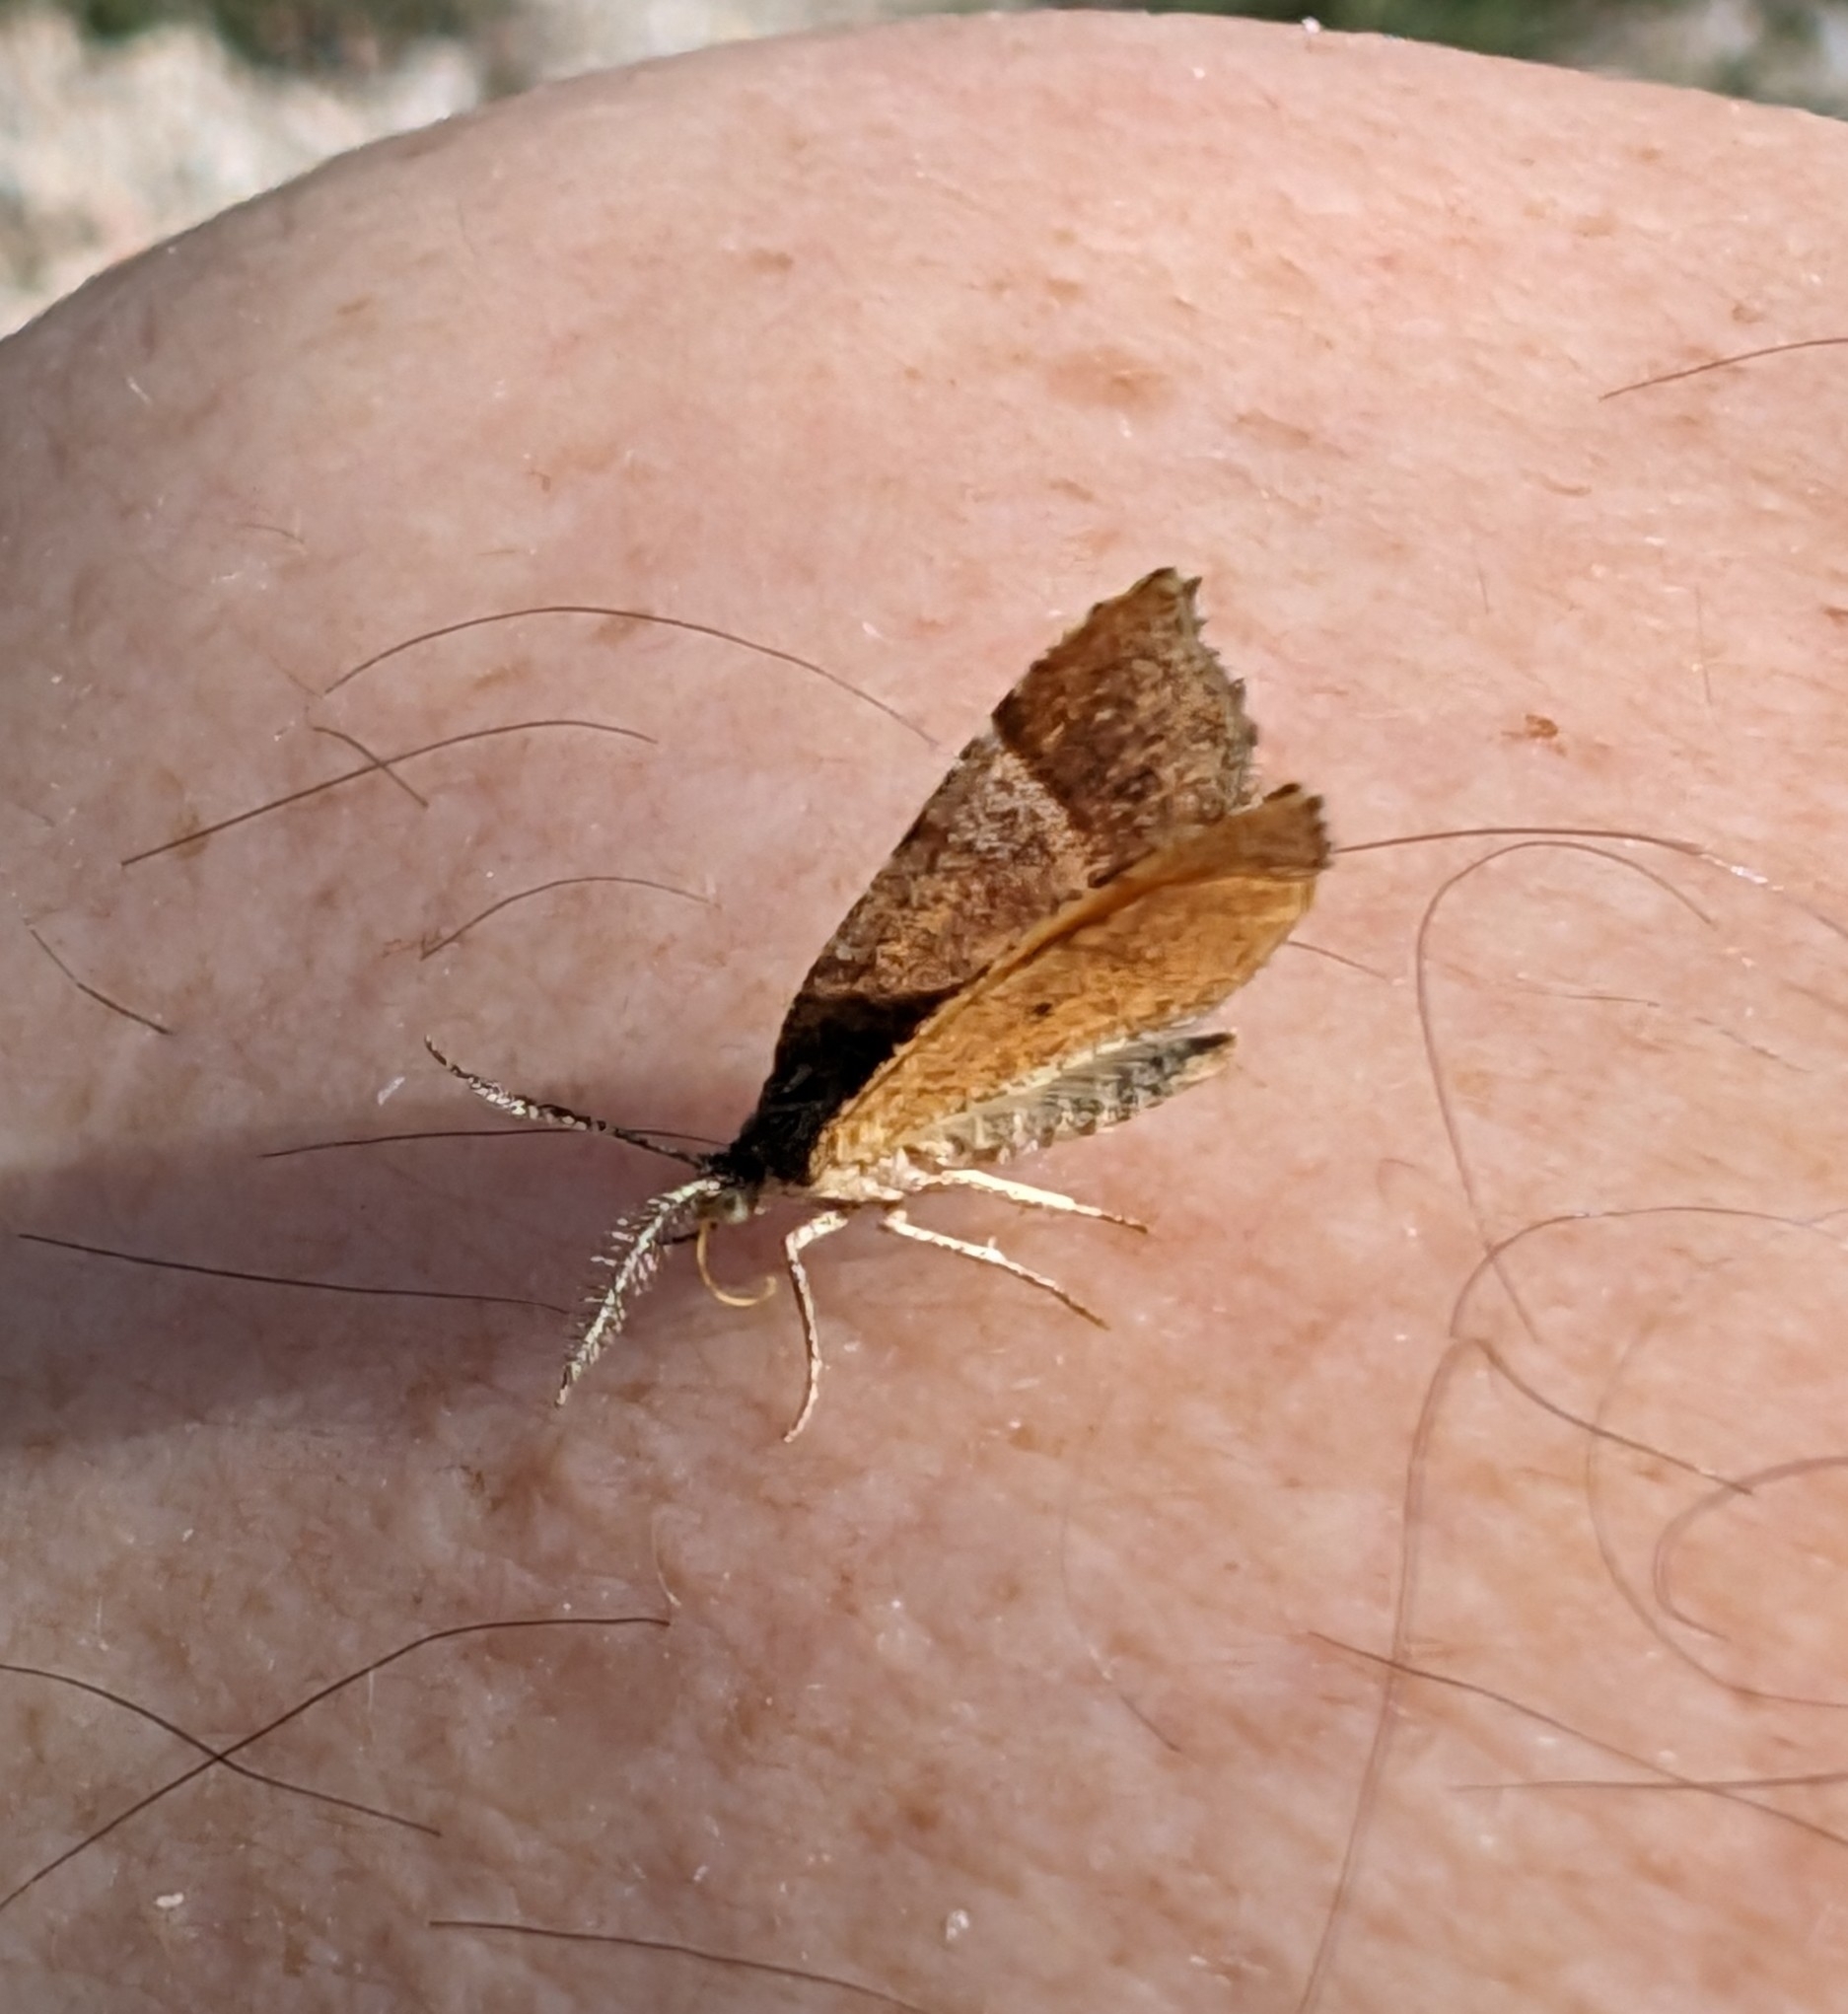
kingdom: Animalia
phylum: Arthropoda
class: Insecta
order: Lepidoptera
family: Geometridae
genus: Mellilla
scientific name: Mellilla xanthometata
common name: Orange wing moth
